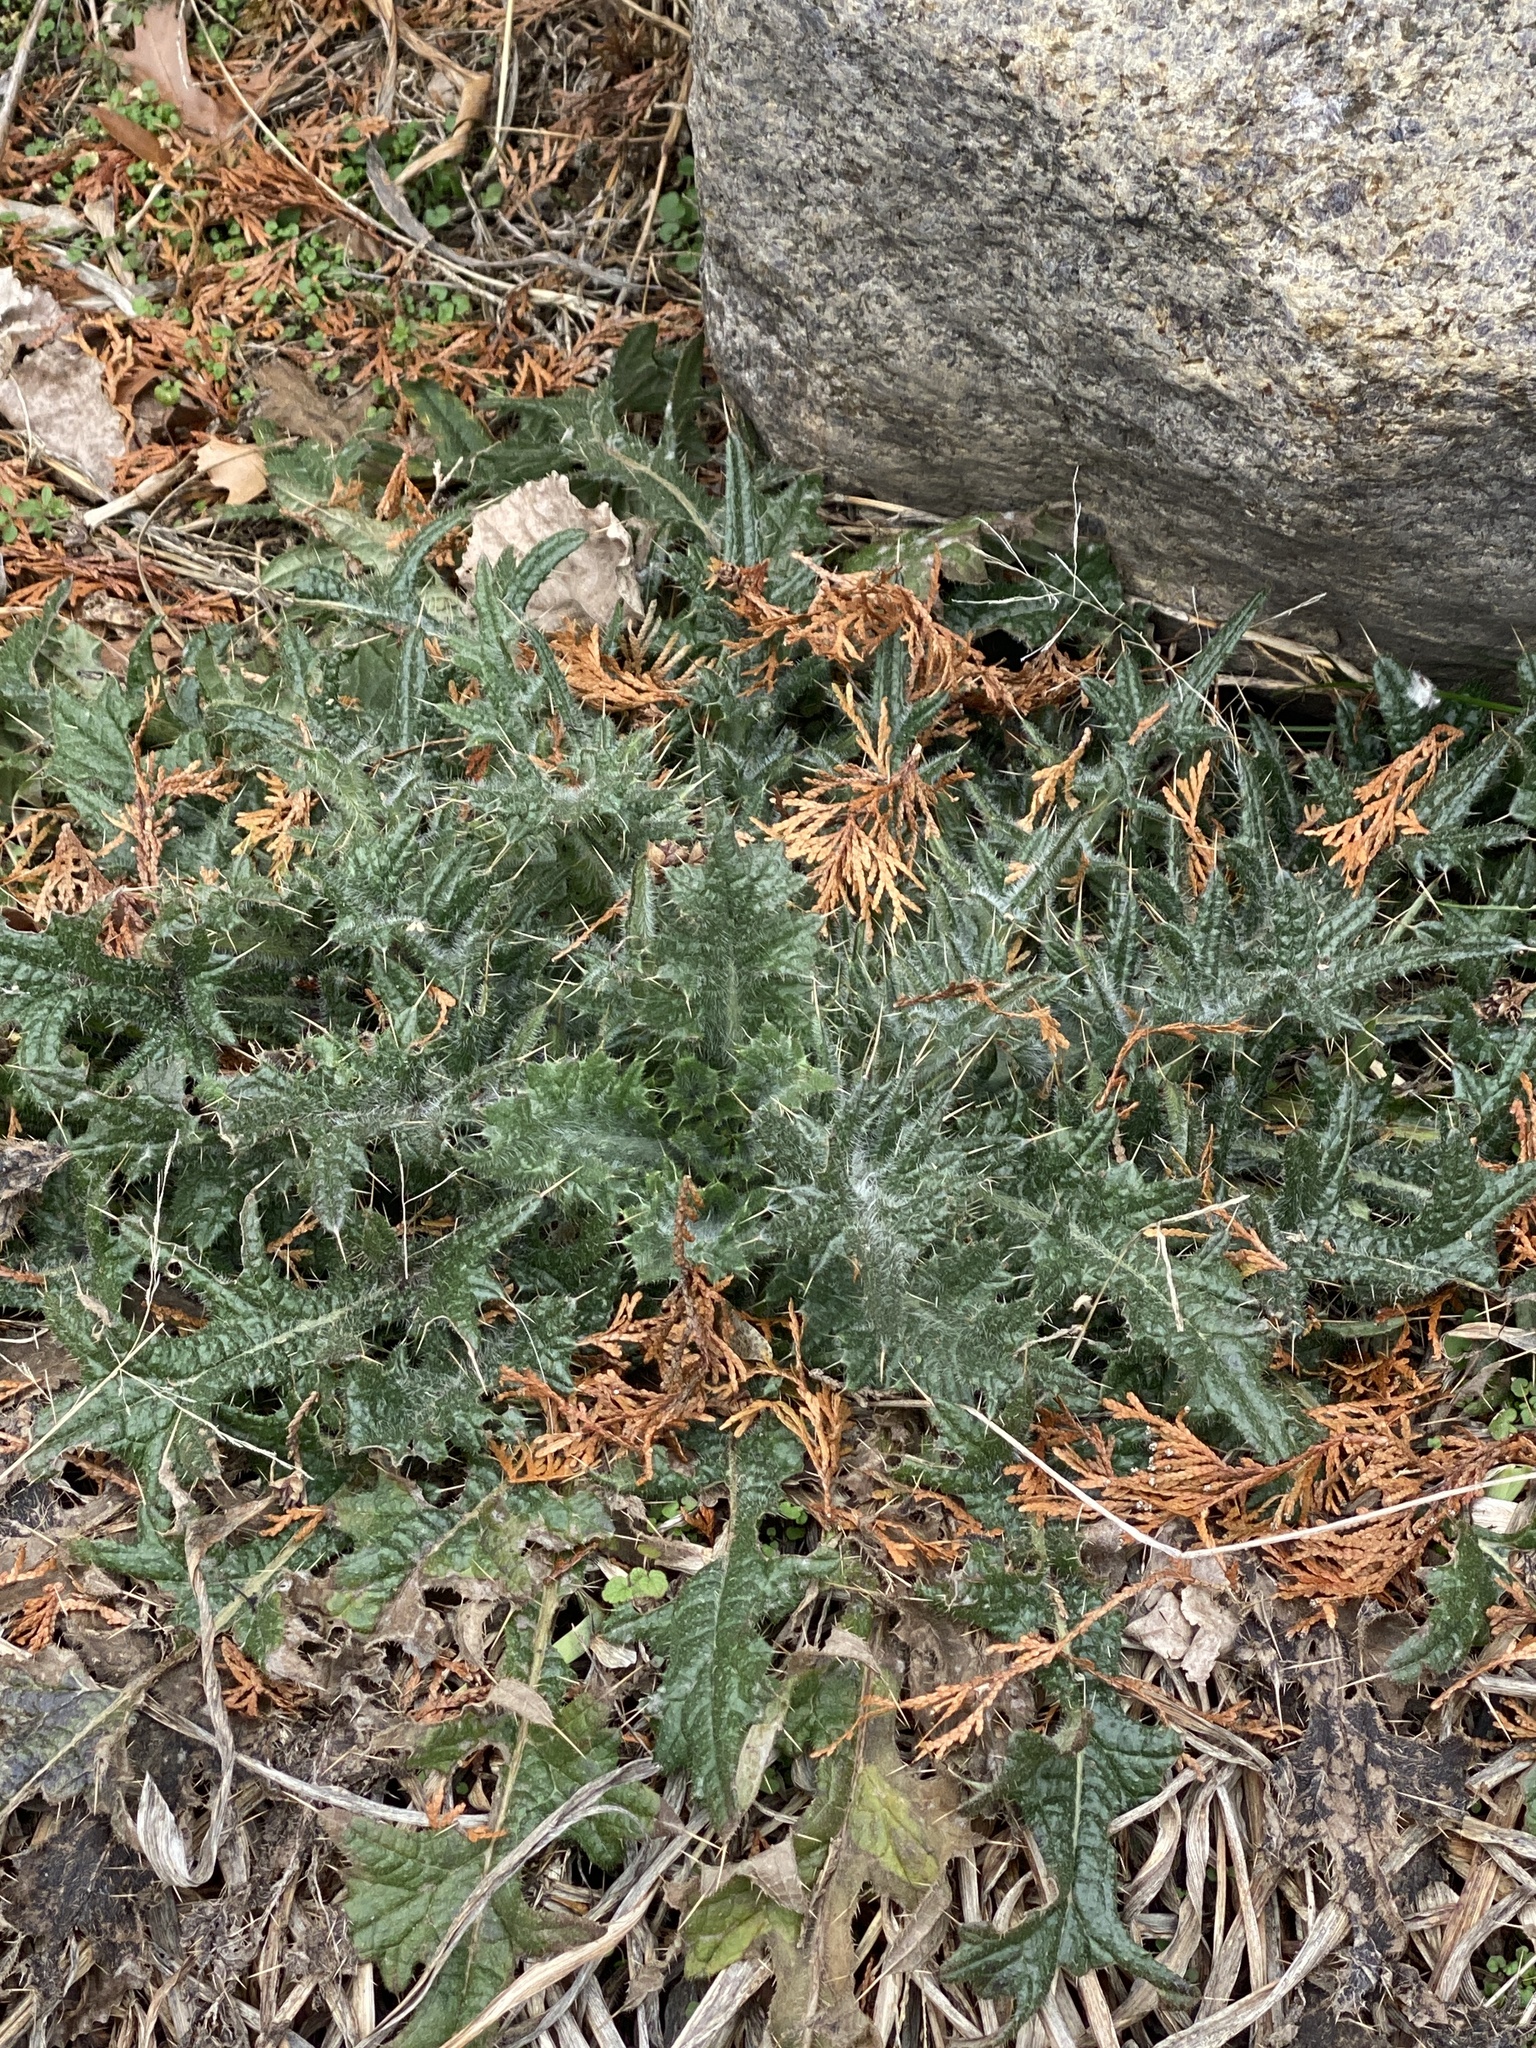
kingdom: Plantae
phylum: Tracheophyta
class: Magnoliopsida
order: Asterales
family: Asteraceae
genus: Cirsium
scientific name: Cirsium vulgare
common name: Bull thistle
